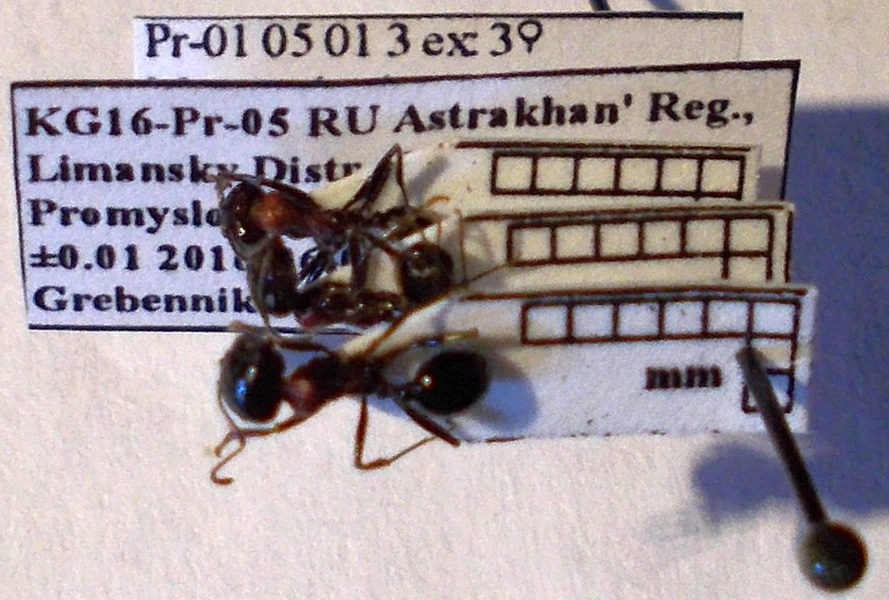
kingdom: Animalia
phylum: Arthropoda
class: Insecta
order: Hymenoptera
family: Formicidae
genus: Messor
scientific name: Messor denticulatus
